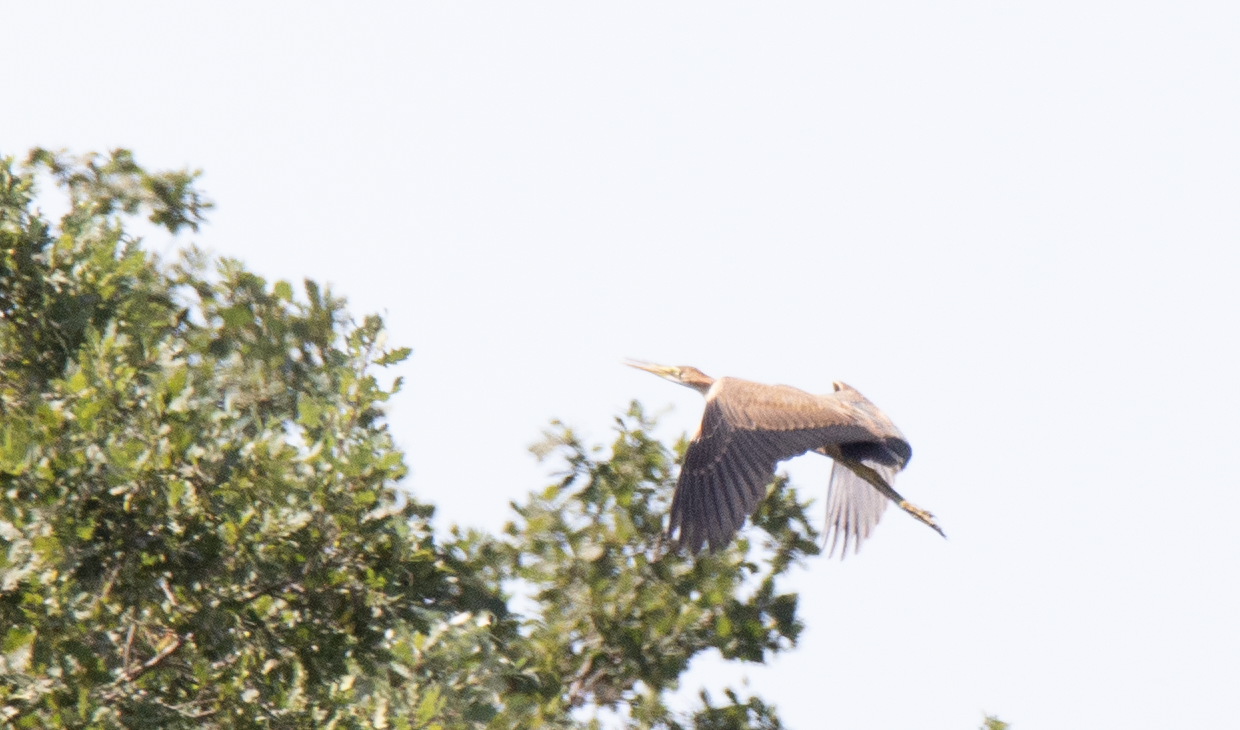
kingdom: Animalia
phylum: Chordata
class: Aves
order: Pelecaniformes
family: Ardeidae
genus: Ardea
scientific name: Ardea purpurea
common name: Purple heron
